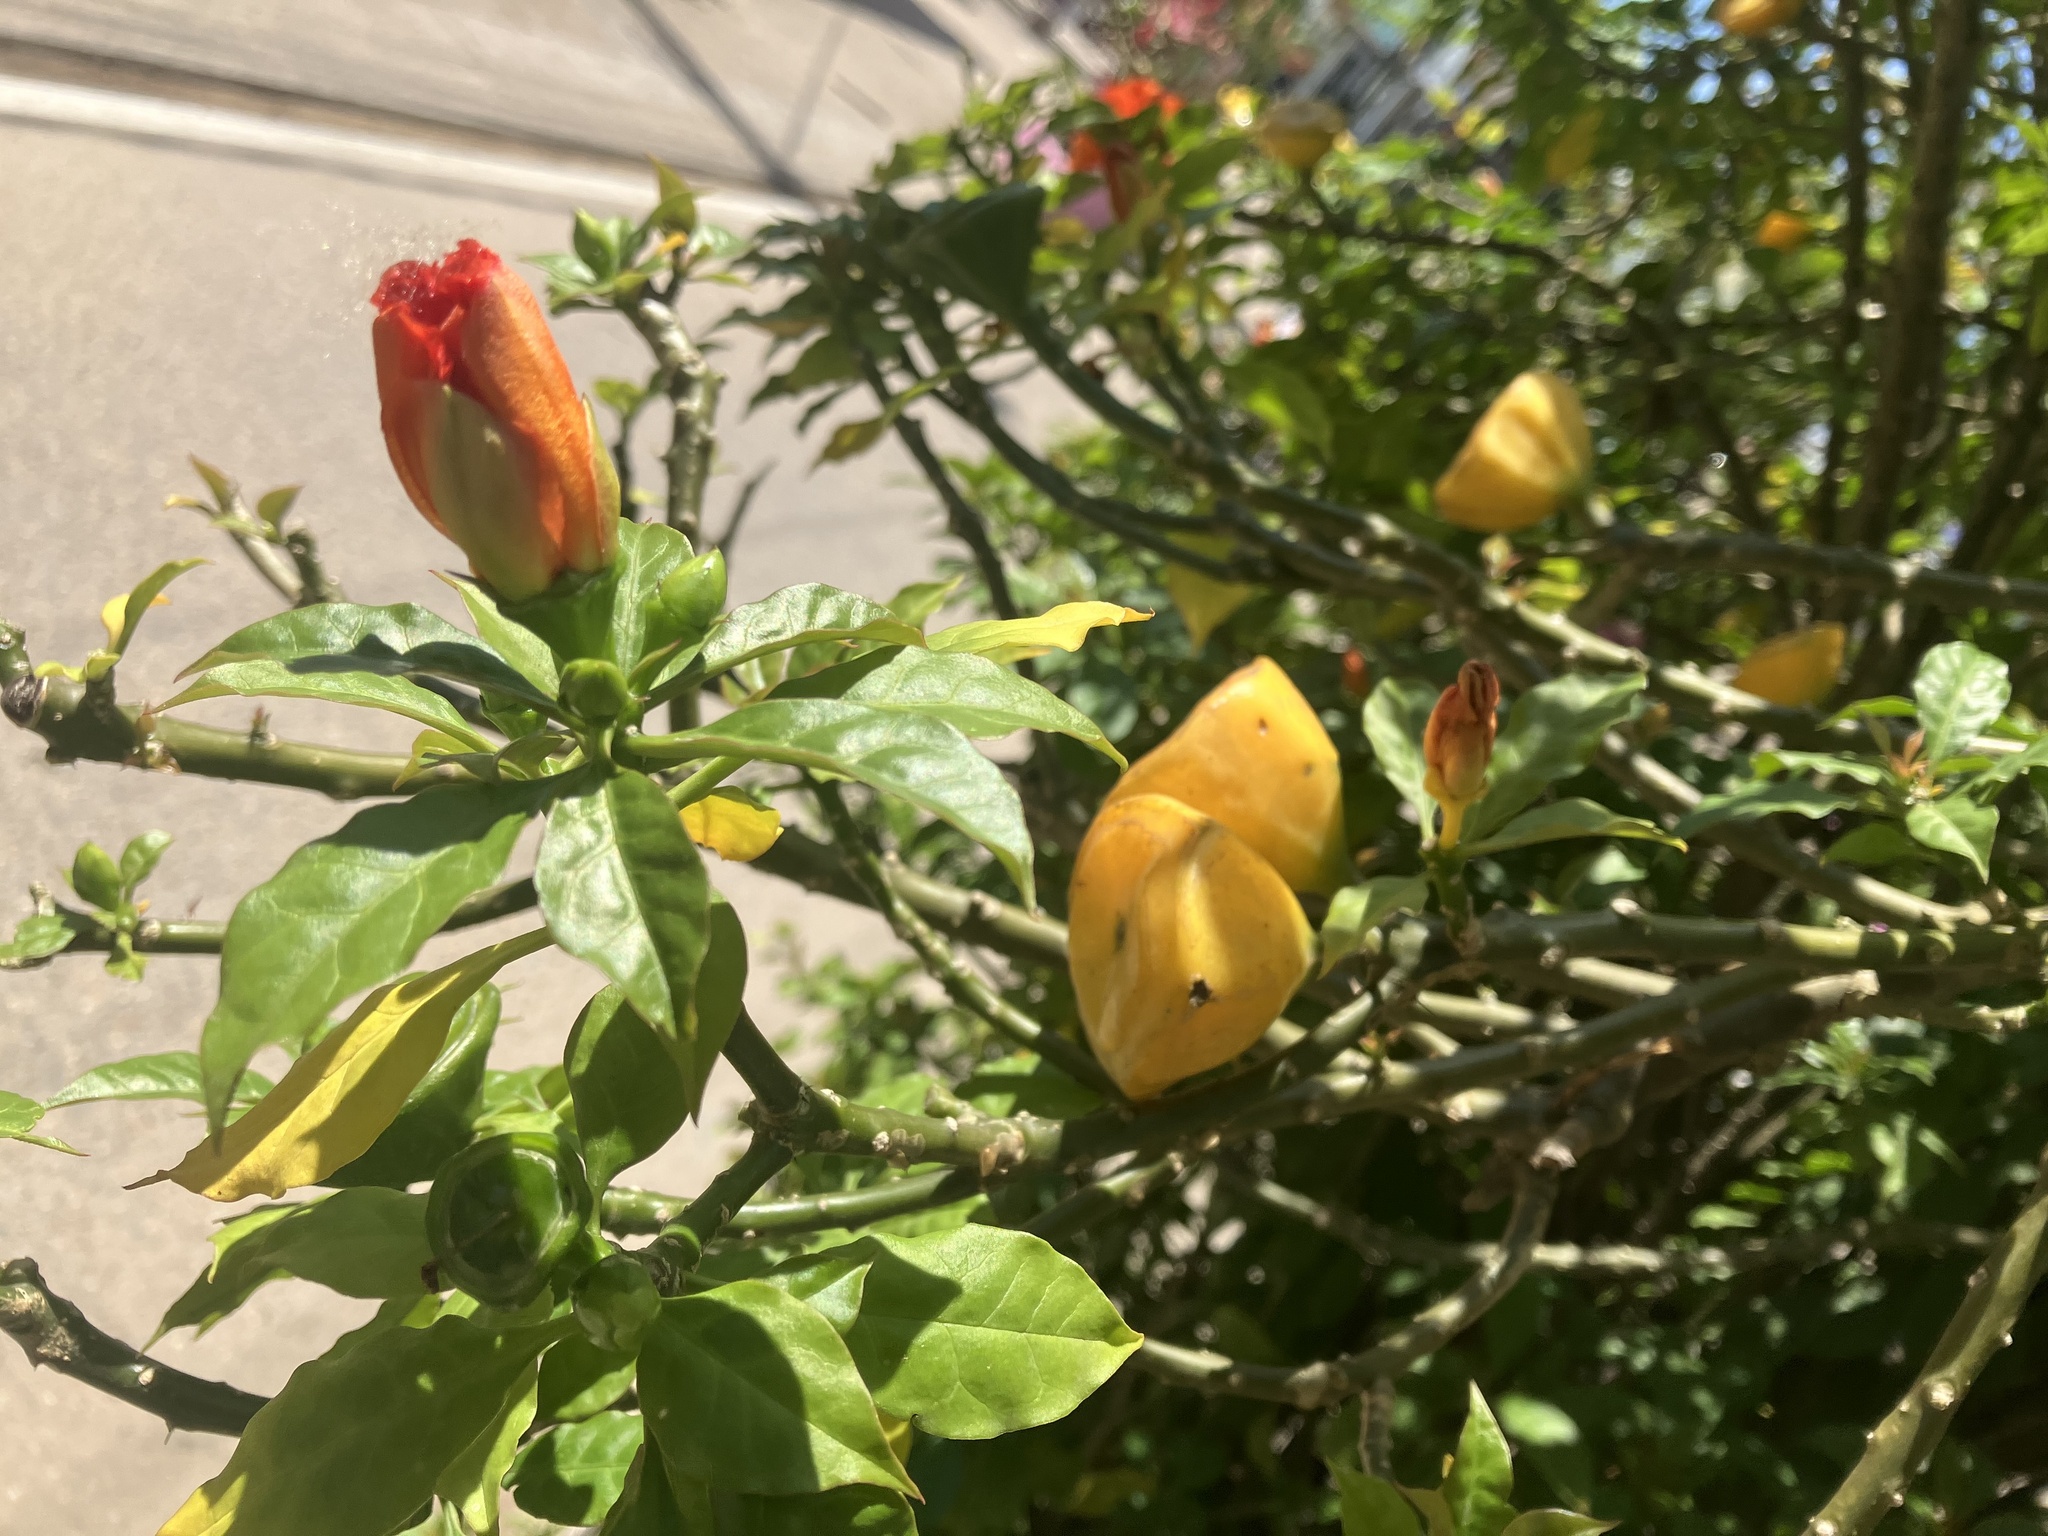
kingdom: Plantae
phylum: Tracheophyta
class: Magnoliopsida
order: Caryophyllales
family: Cactaceae
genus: Leuenbergeria
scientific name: Leuenbergeria bleo
